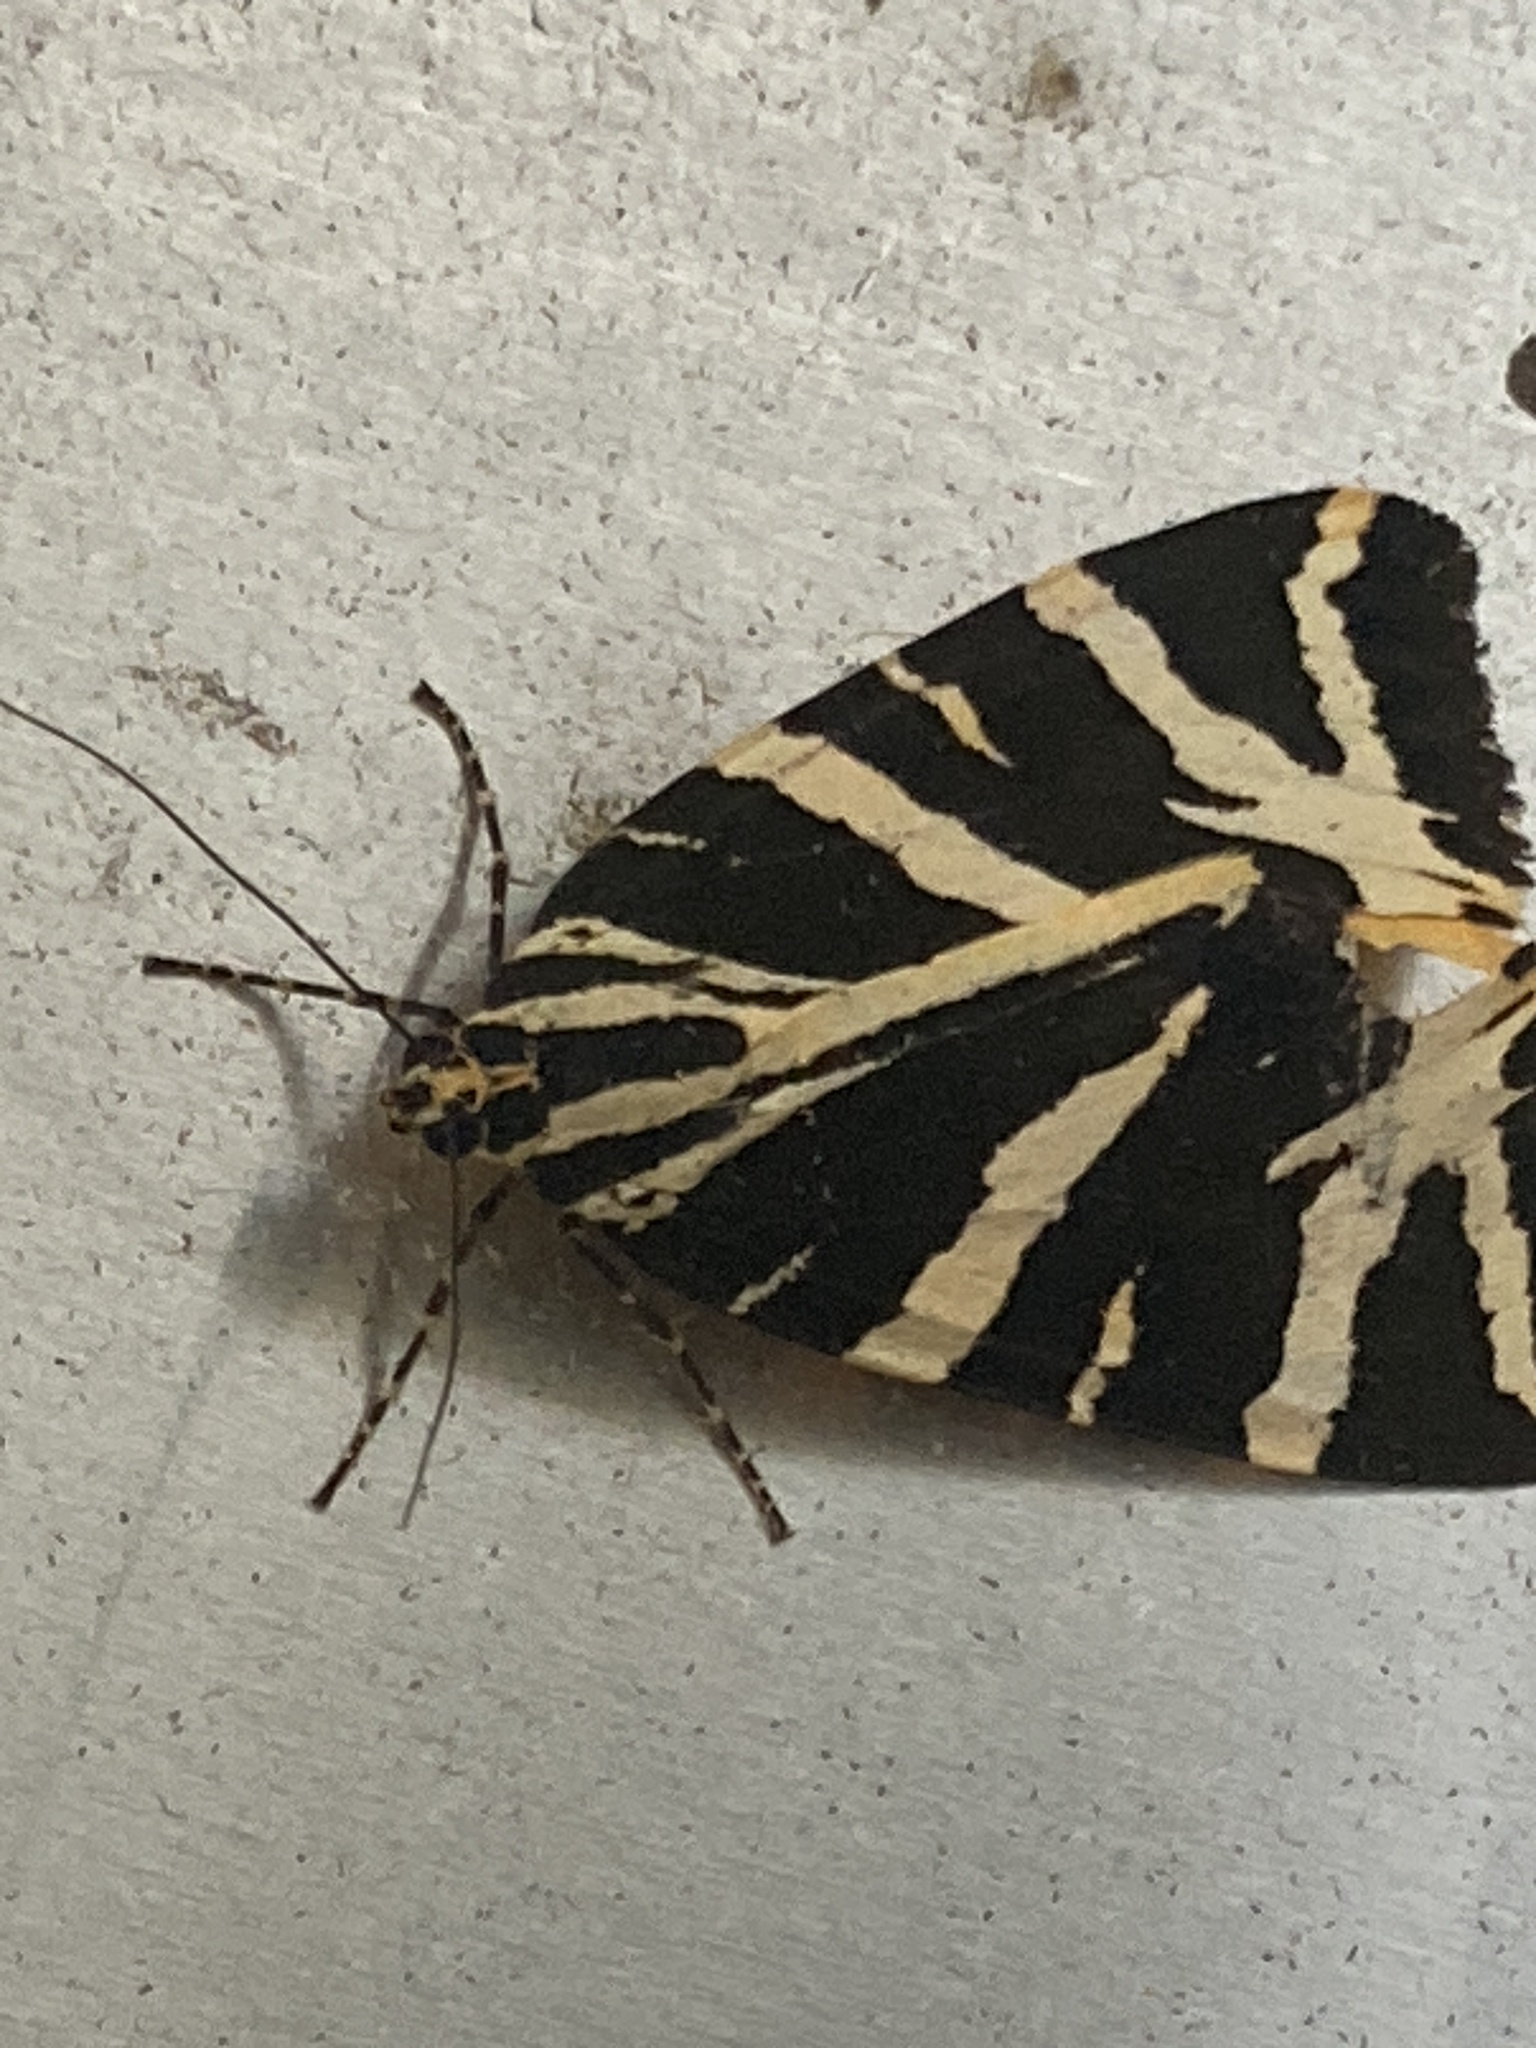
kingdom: Animalia
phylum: Arthropoda
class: Insecta
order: Lepidoptera
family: Erebidae
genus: Euplagia
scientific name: Euplagia quadripunctaria
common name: Jersey tiger
